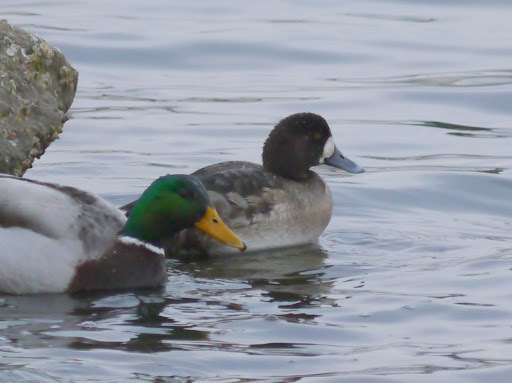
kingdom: Animalia
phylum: Chordata
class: Aves
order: Anseriformes
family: Anatidae
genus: Aythya
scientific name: Aythya marila
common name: Greater scaup
